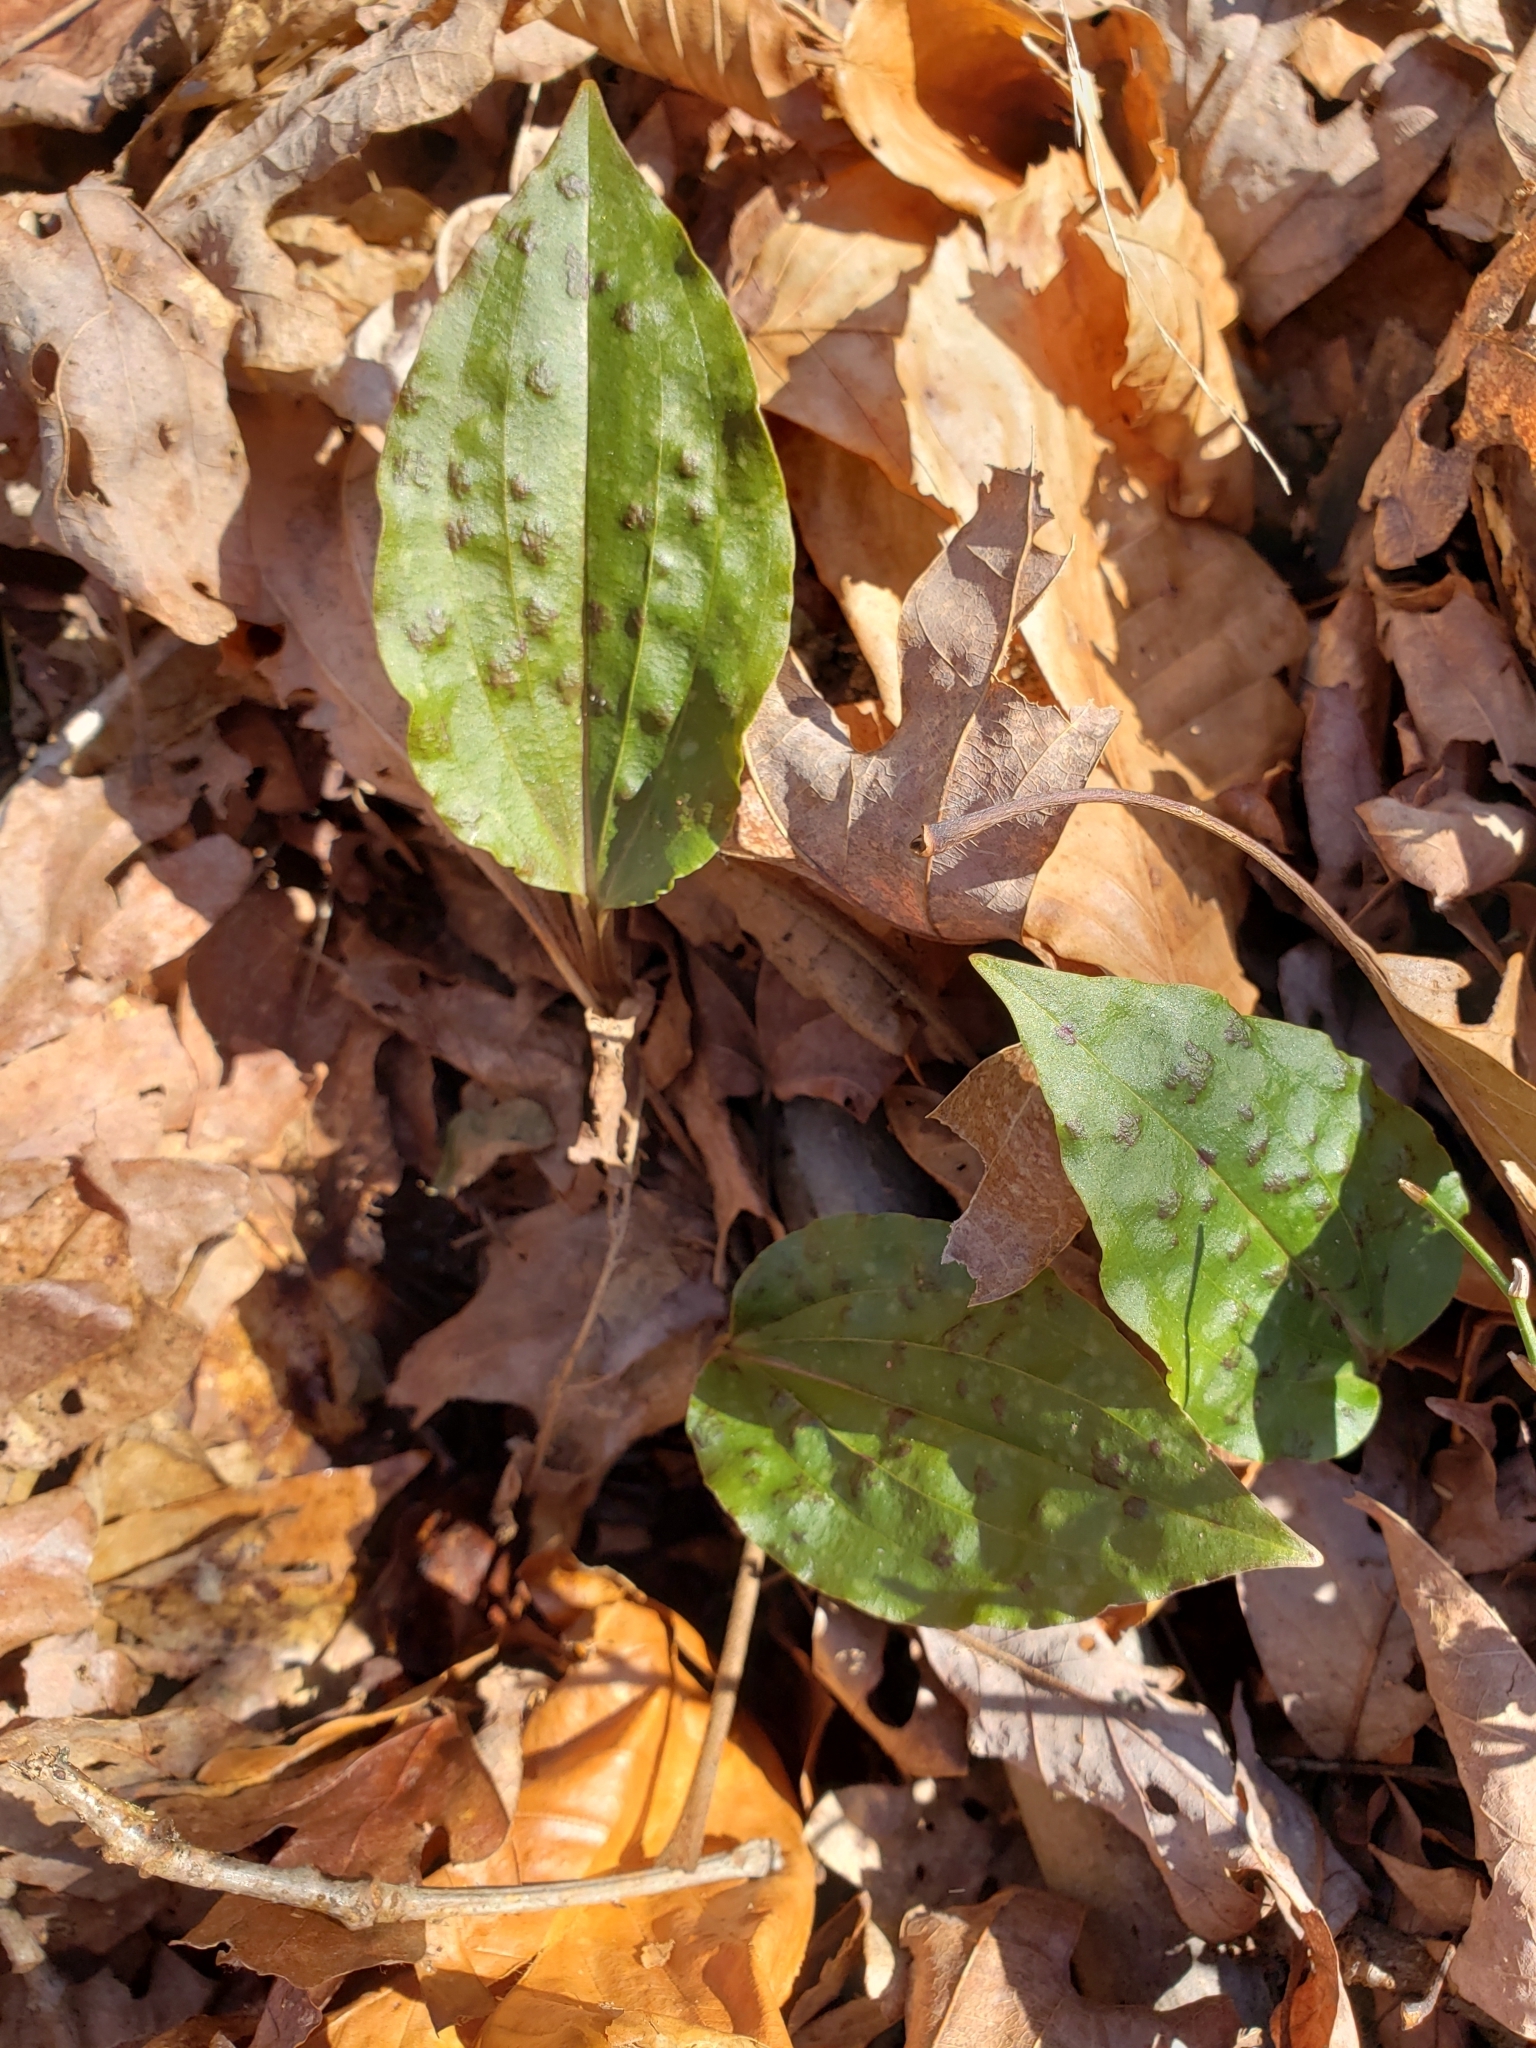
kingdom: Plantae
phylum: Tracheophyta
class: Liliopsida
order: Asparagales
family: Orchidaceae
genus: Tipularia
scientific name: Tipularia discolor
